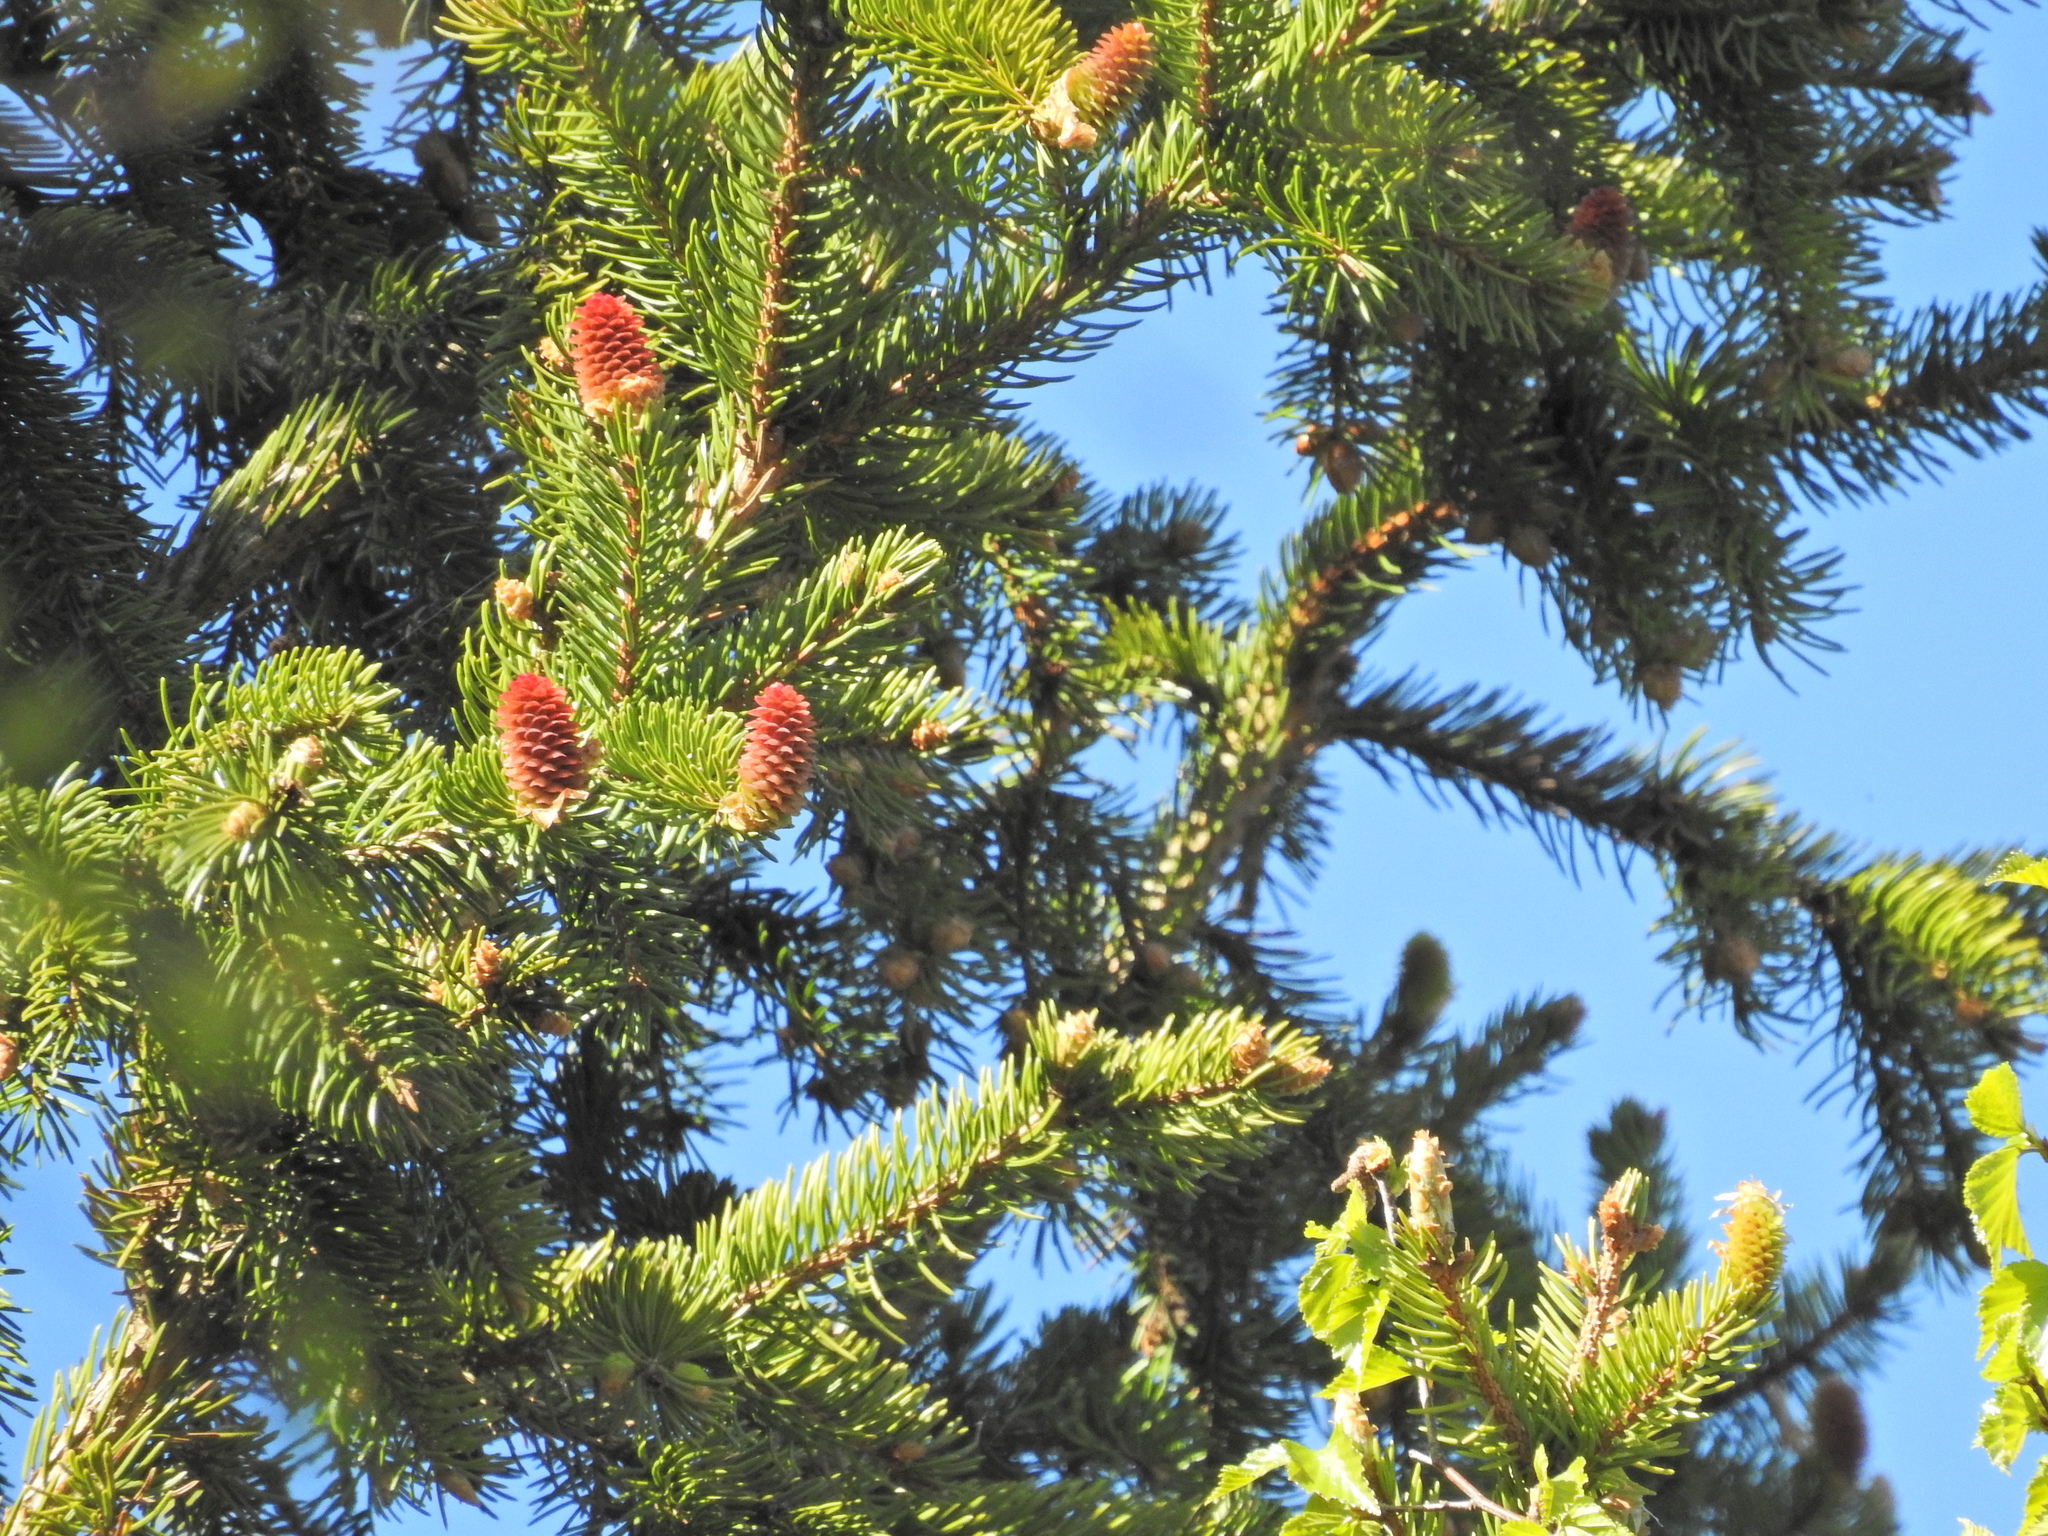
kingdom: Plantae
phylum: Tracheophyta
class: Pinopsida
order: Pinales
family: Pinaceae
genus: Picea
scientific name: Picea abies
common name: Norway spruce
